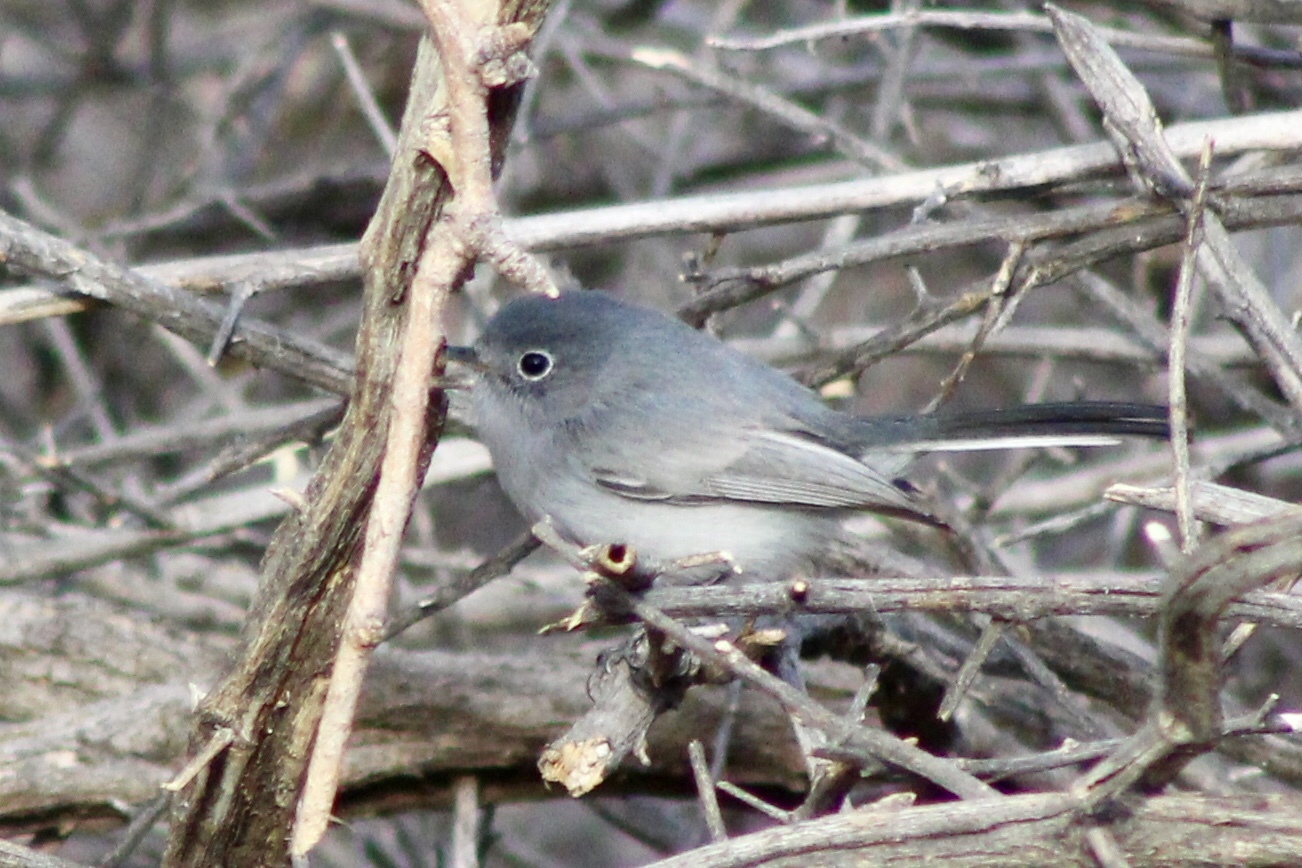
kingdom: Animalia
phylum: Chordata
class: Aves
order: Passeriformes
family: Polioptilidae
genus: Polioptila
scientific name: Polioptila caerulea
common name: Blue-gray gnatcatcher
